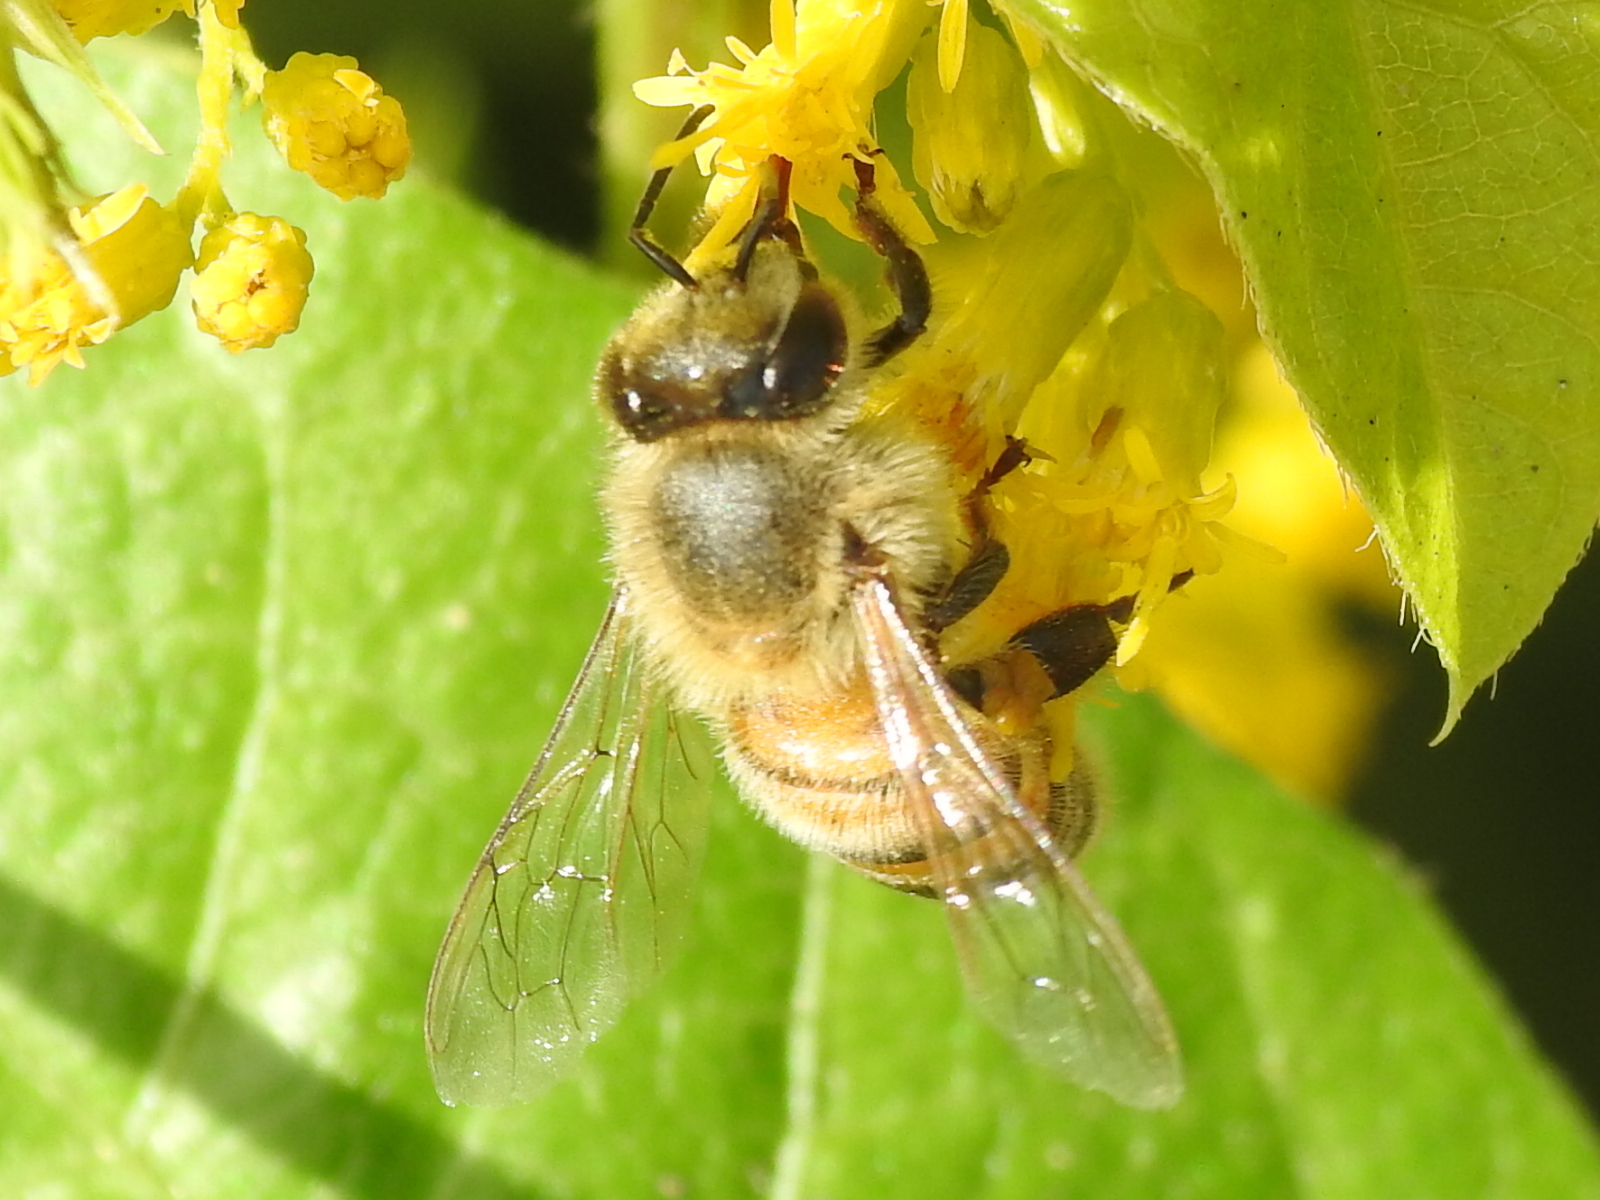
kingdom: Animalia
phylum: Arthropoda
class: Insecta
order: Hymenoptera
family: Apidae
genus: Apis
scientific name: Apis mellifera
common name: Honey bee
